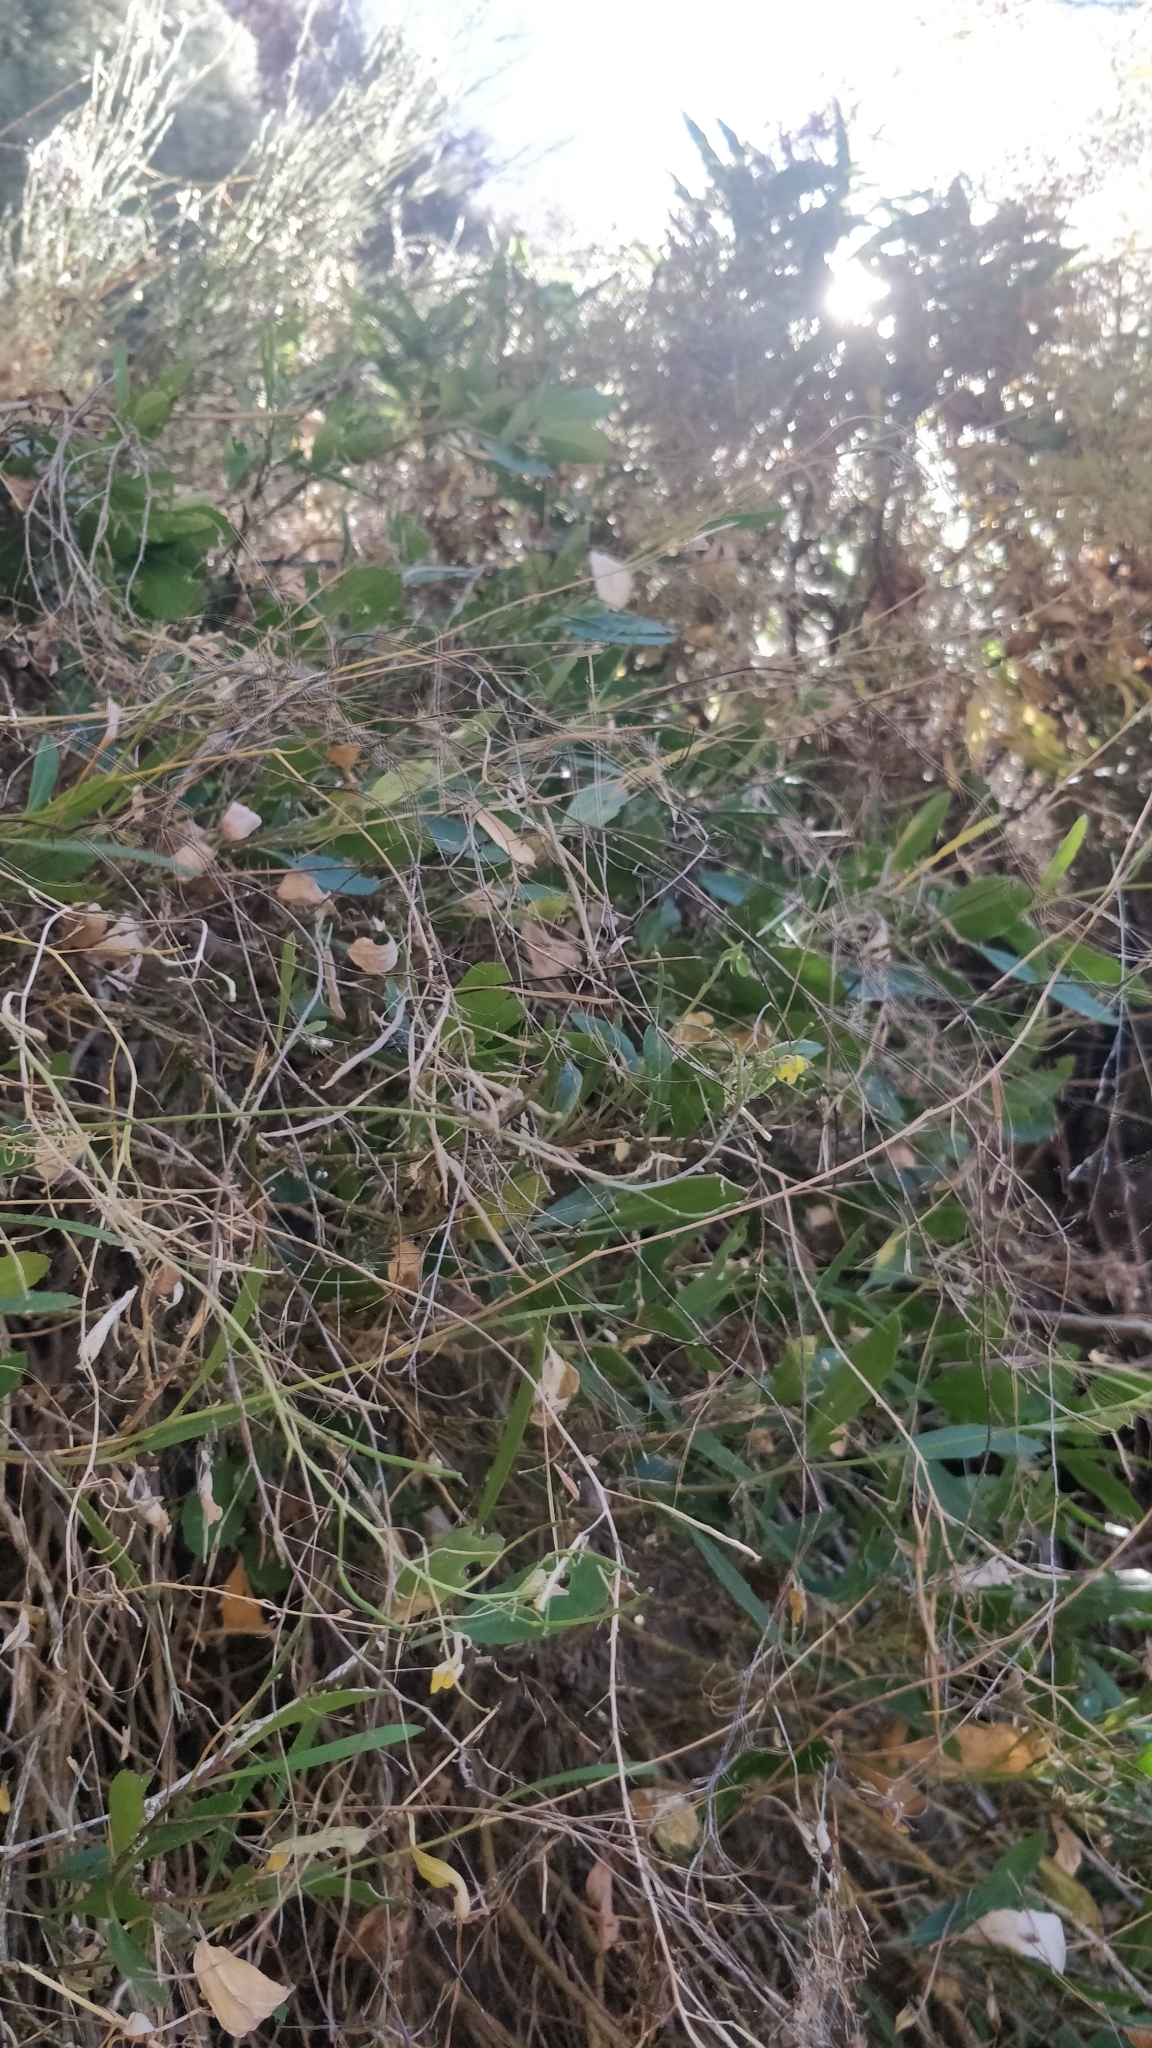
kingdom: Plantae
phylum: Tracheophyta
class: Magnoliopsida
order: Brassicales
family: Brassicaceae
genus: Sinapidendron
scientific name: Sinapidendron frutescens
